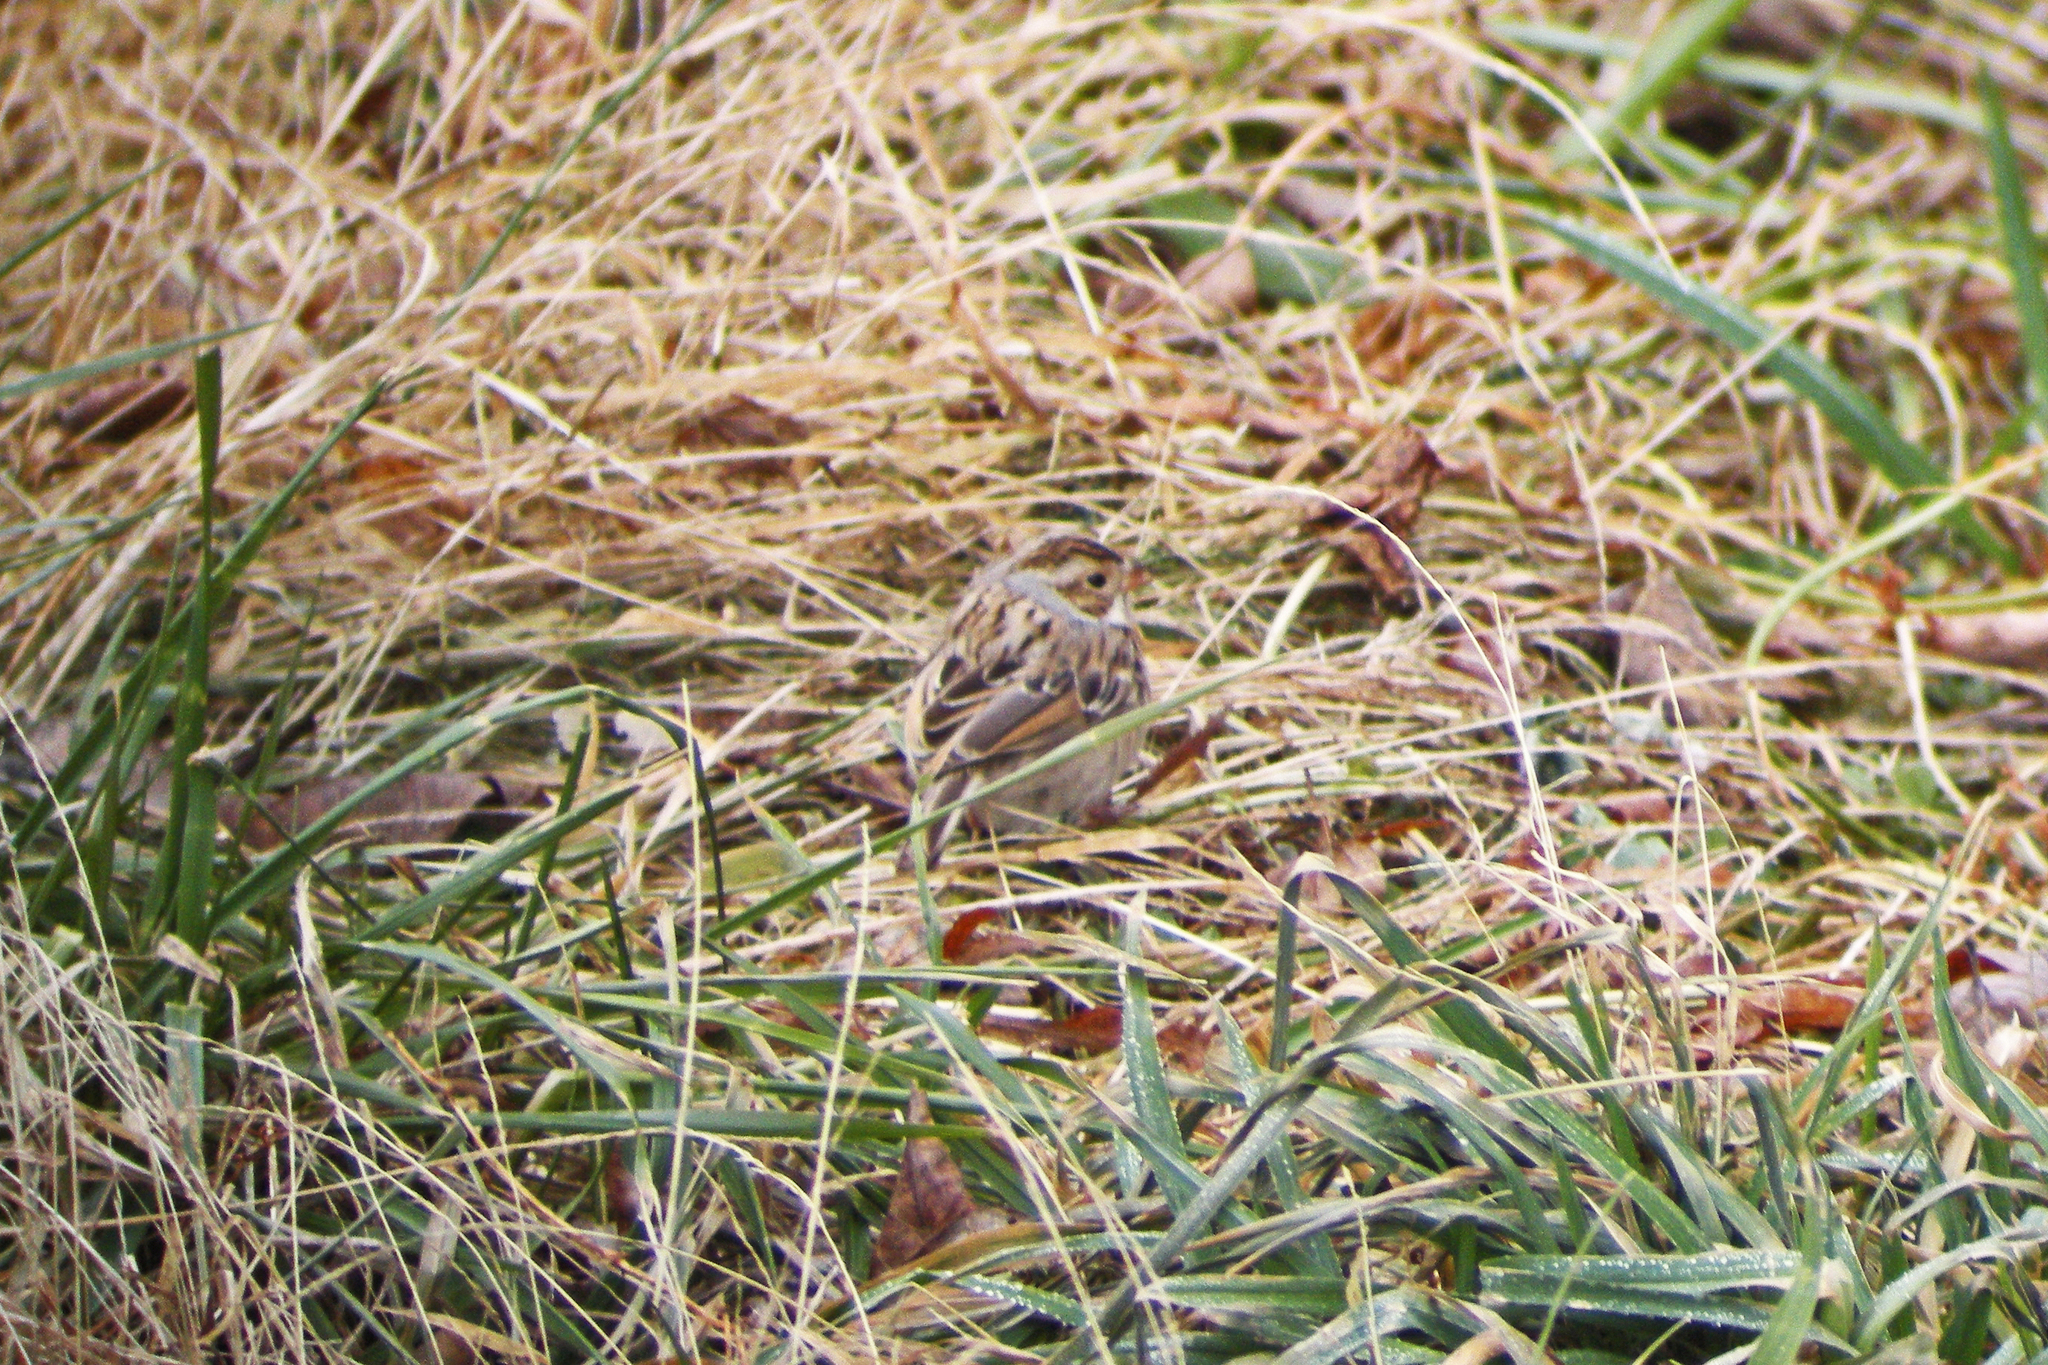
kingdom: Animalia
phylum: Chordata
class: Aves
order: Passeriformes
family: Passerellidae
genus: Spizella
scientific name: Spizella pallida
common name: Clay-colored sparrow
